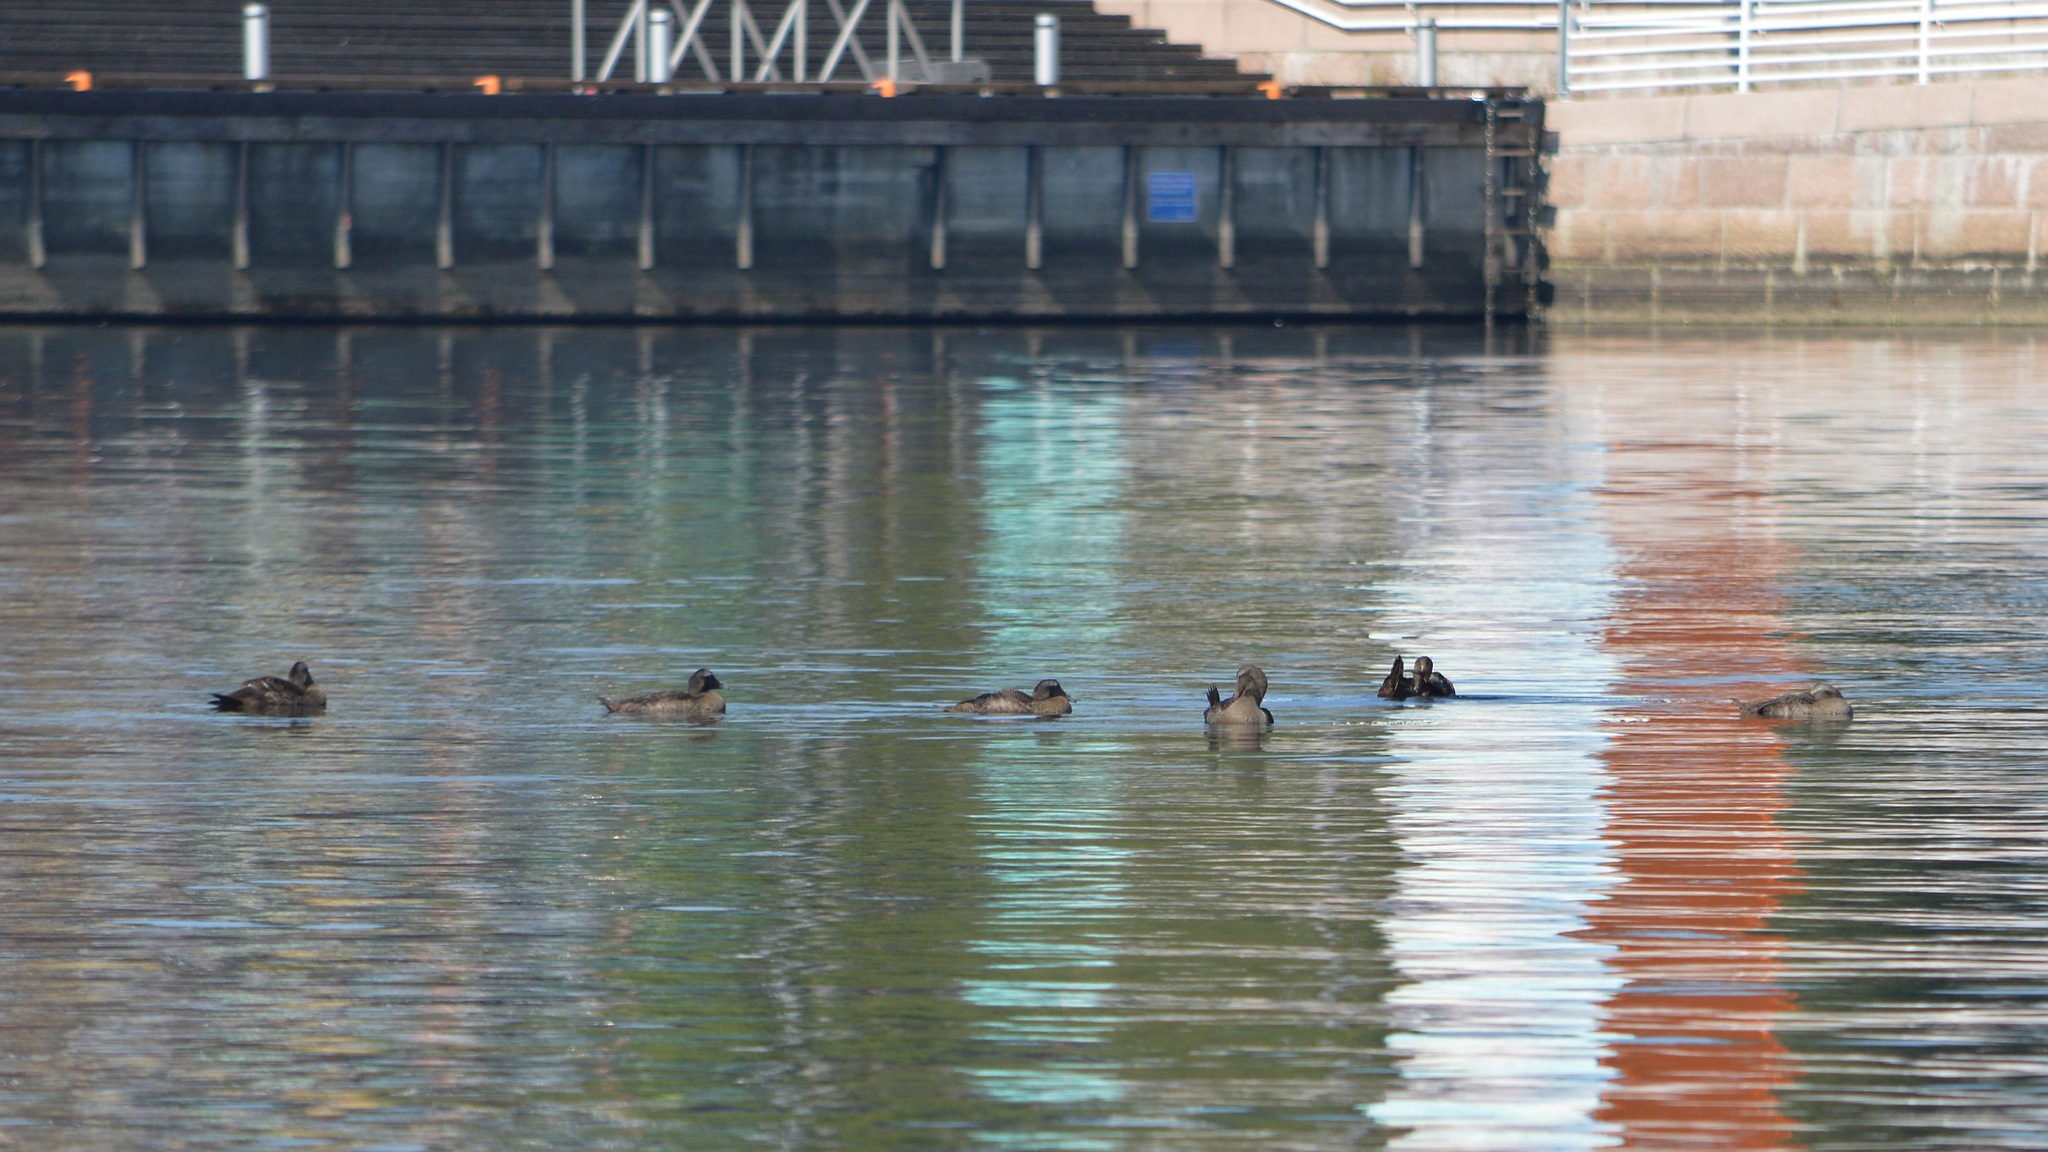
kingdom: Animalia
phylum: Chordata
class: Aves
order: Anseriformes
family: Anatidae
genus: Somateria
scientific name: Somateria mollissima
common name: Common eider
